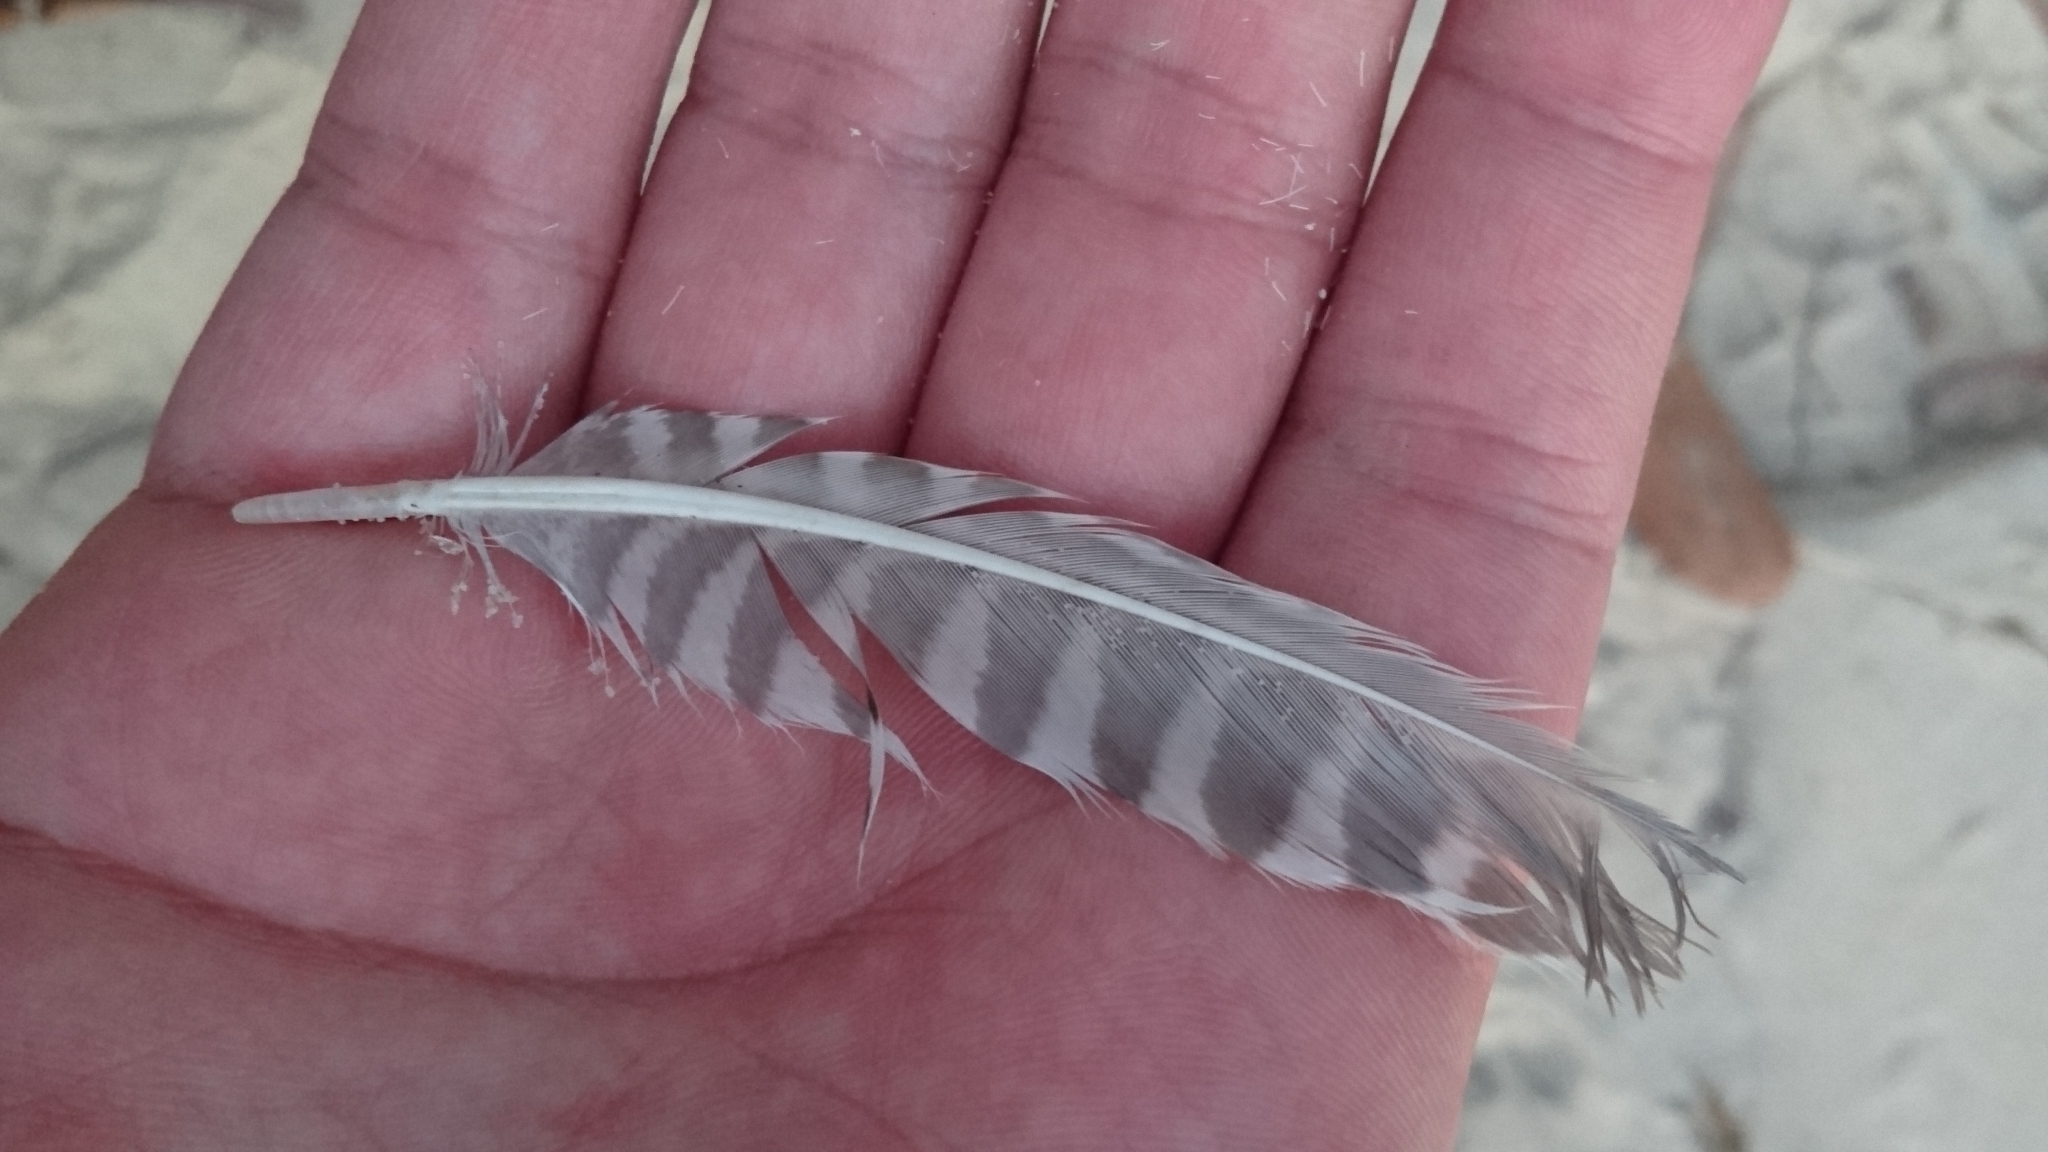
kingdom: Animalia
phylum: Chordata
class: Aves
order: Charadriiformes
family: Scolopacidae
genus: Limosa
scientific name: Limosa lapponica
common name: Bar-tailed godwit
